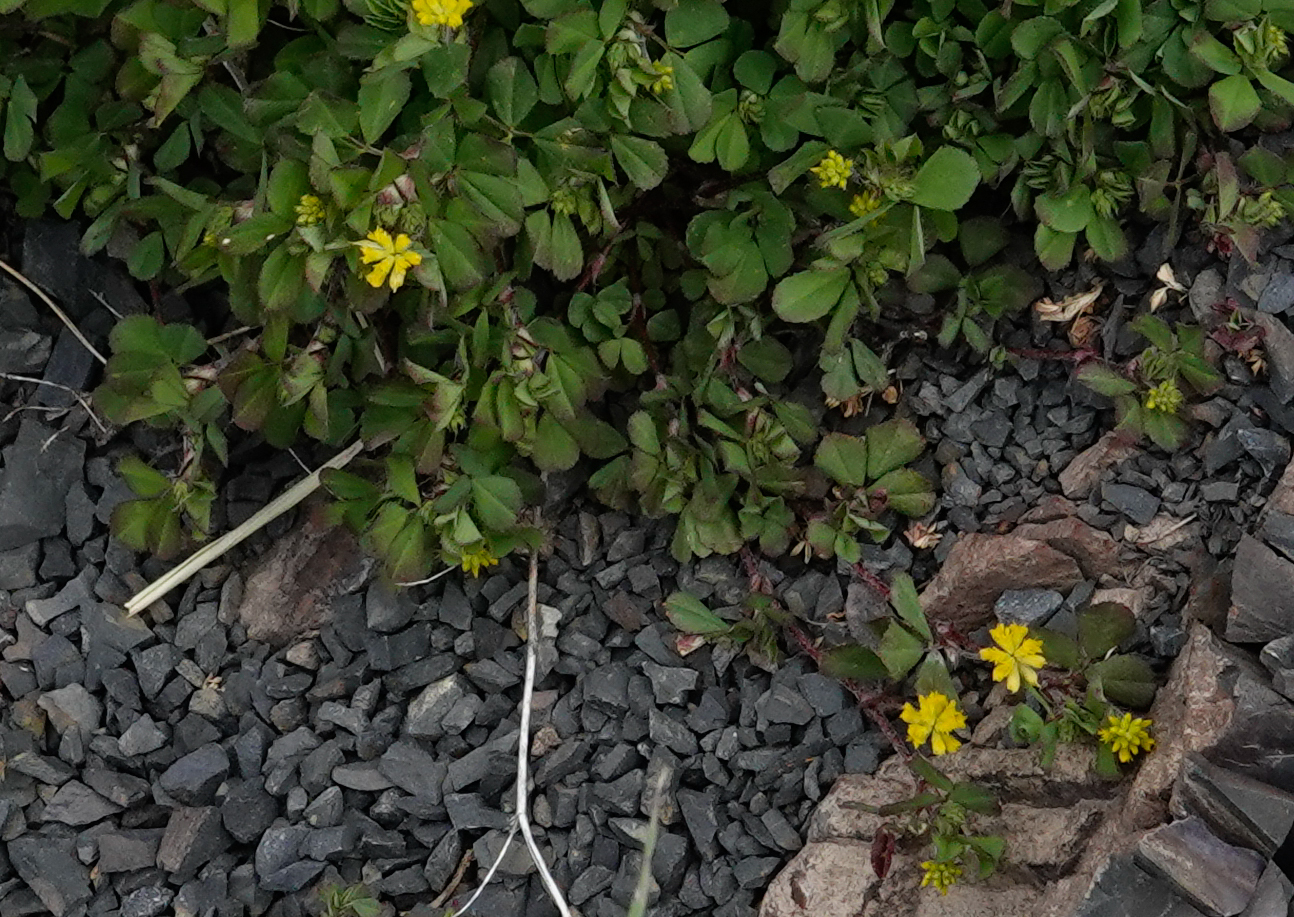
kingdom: Plantae
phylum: Tracheophyta
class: Magnoliopsida
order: Fabales
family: Fabaceae
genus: Trifolium
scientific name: Trifolium dubium
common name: Suckling clover
